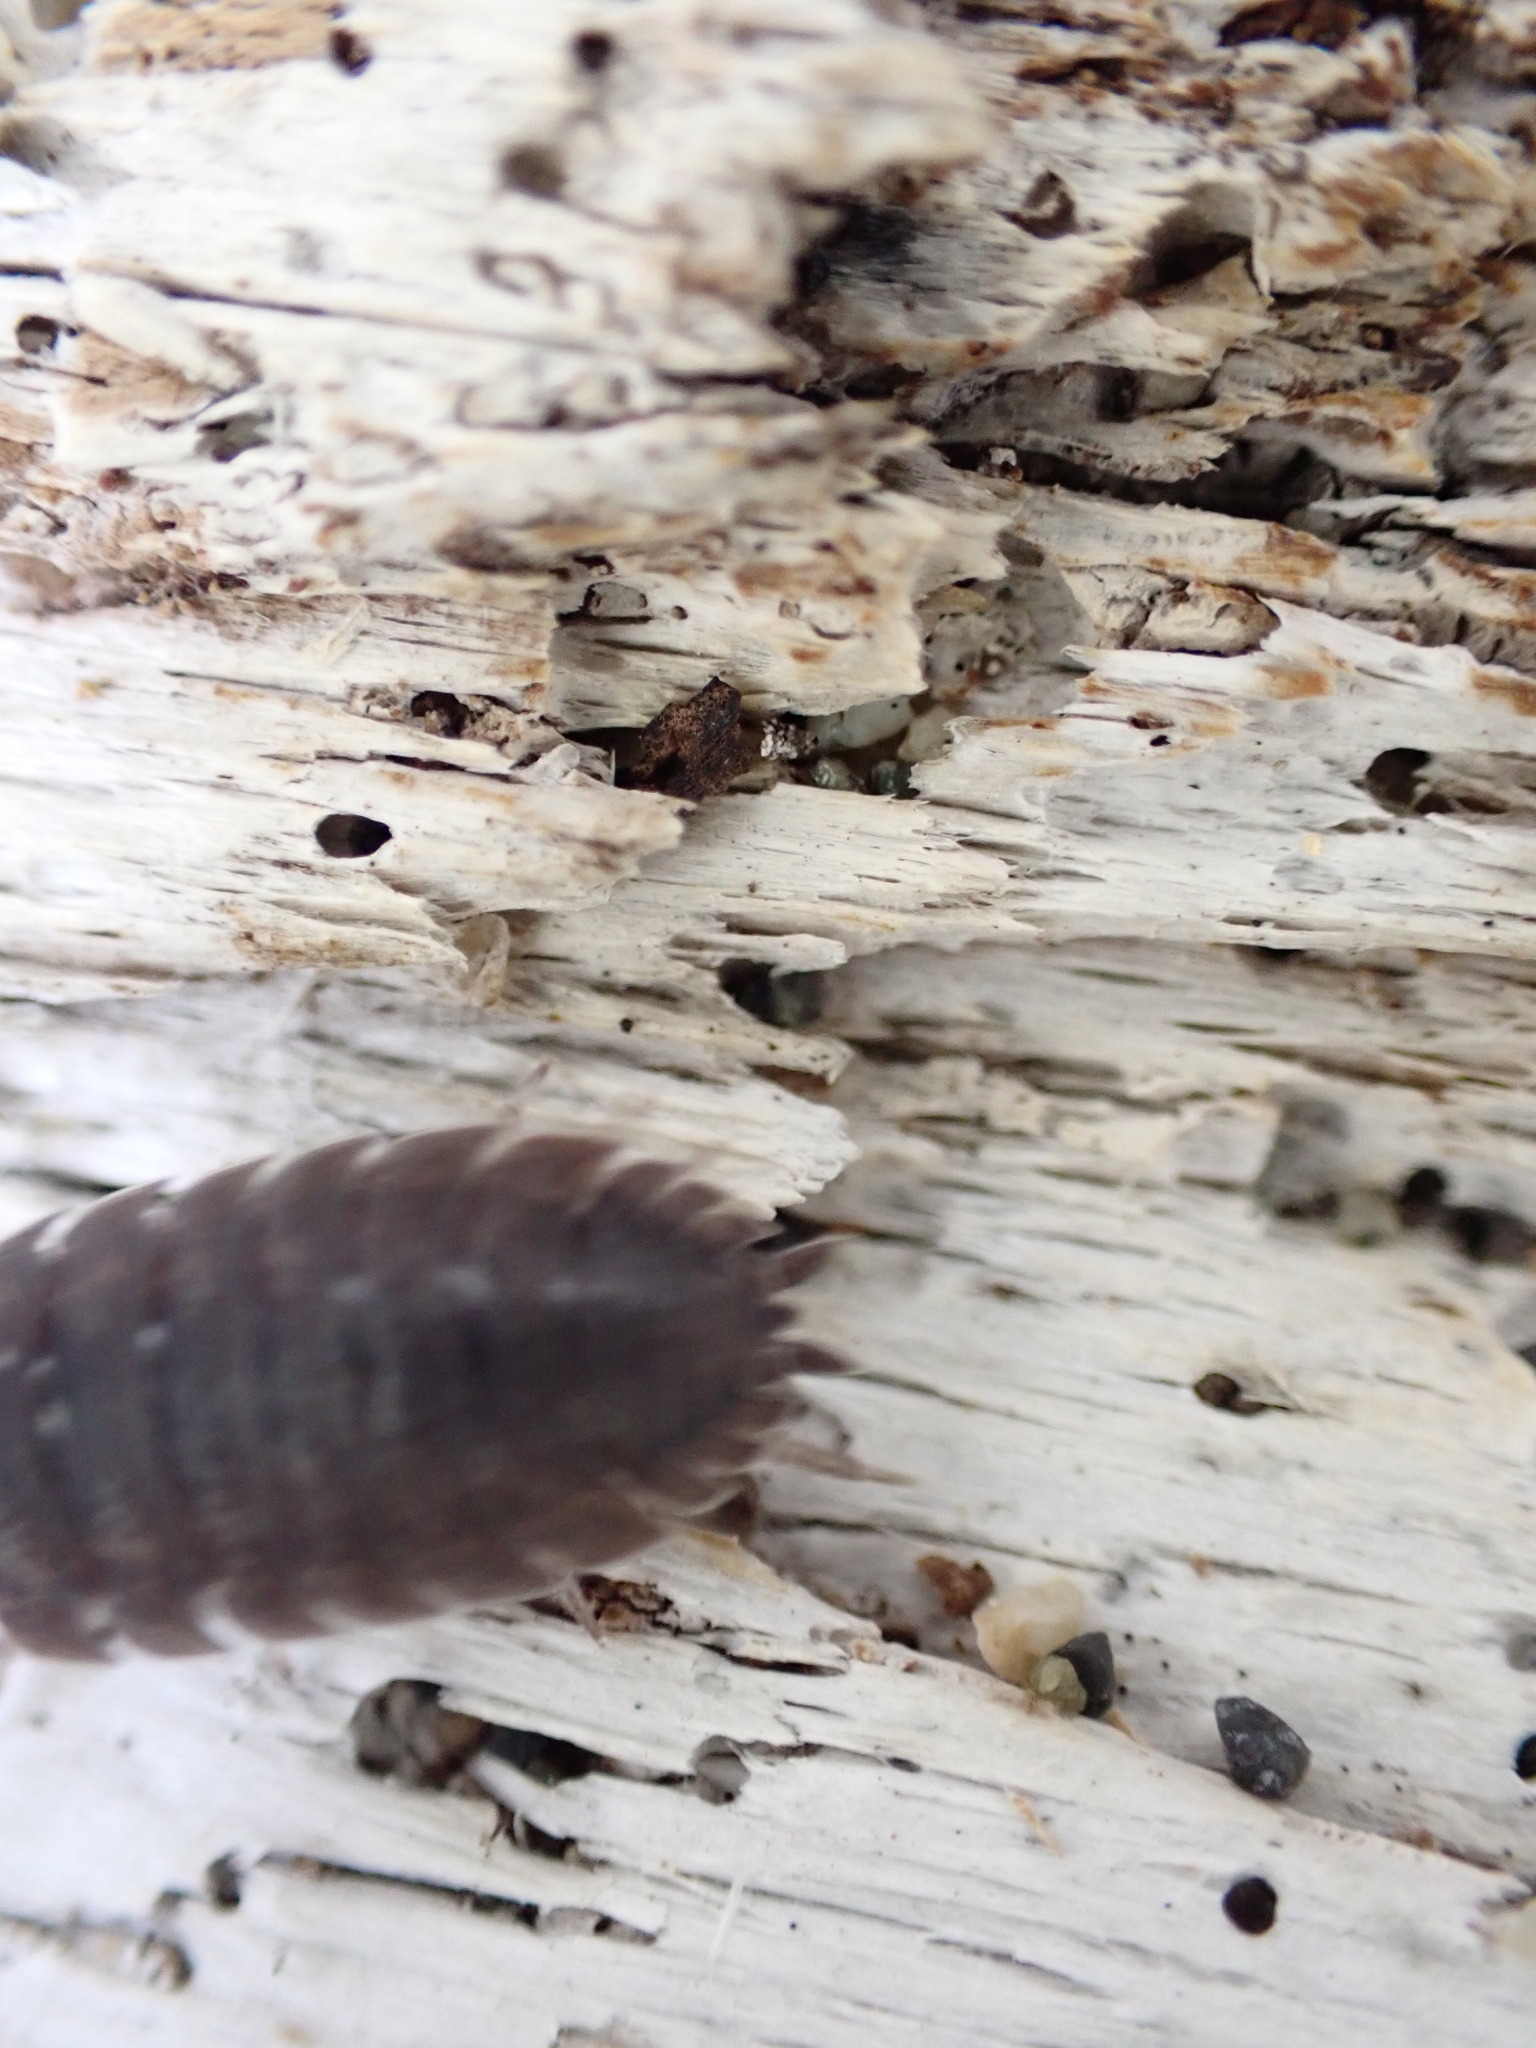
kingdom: Animalia
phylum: Arthropoda
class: Malacostraca
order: Isopoda
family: Porcellionidae
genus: Porcellio
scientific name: Porcellio scaber
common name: Common rough woodlouse
